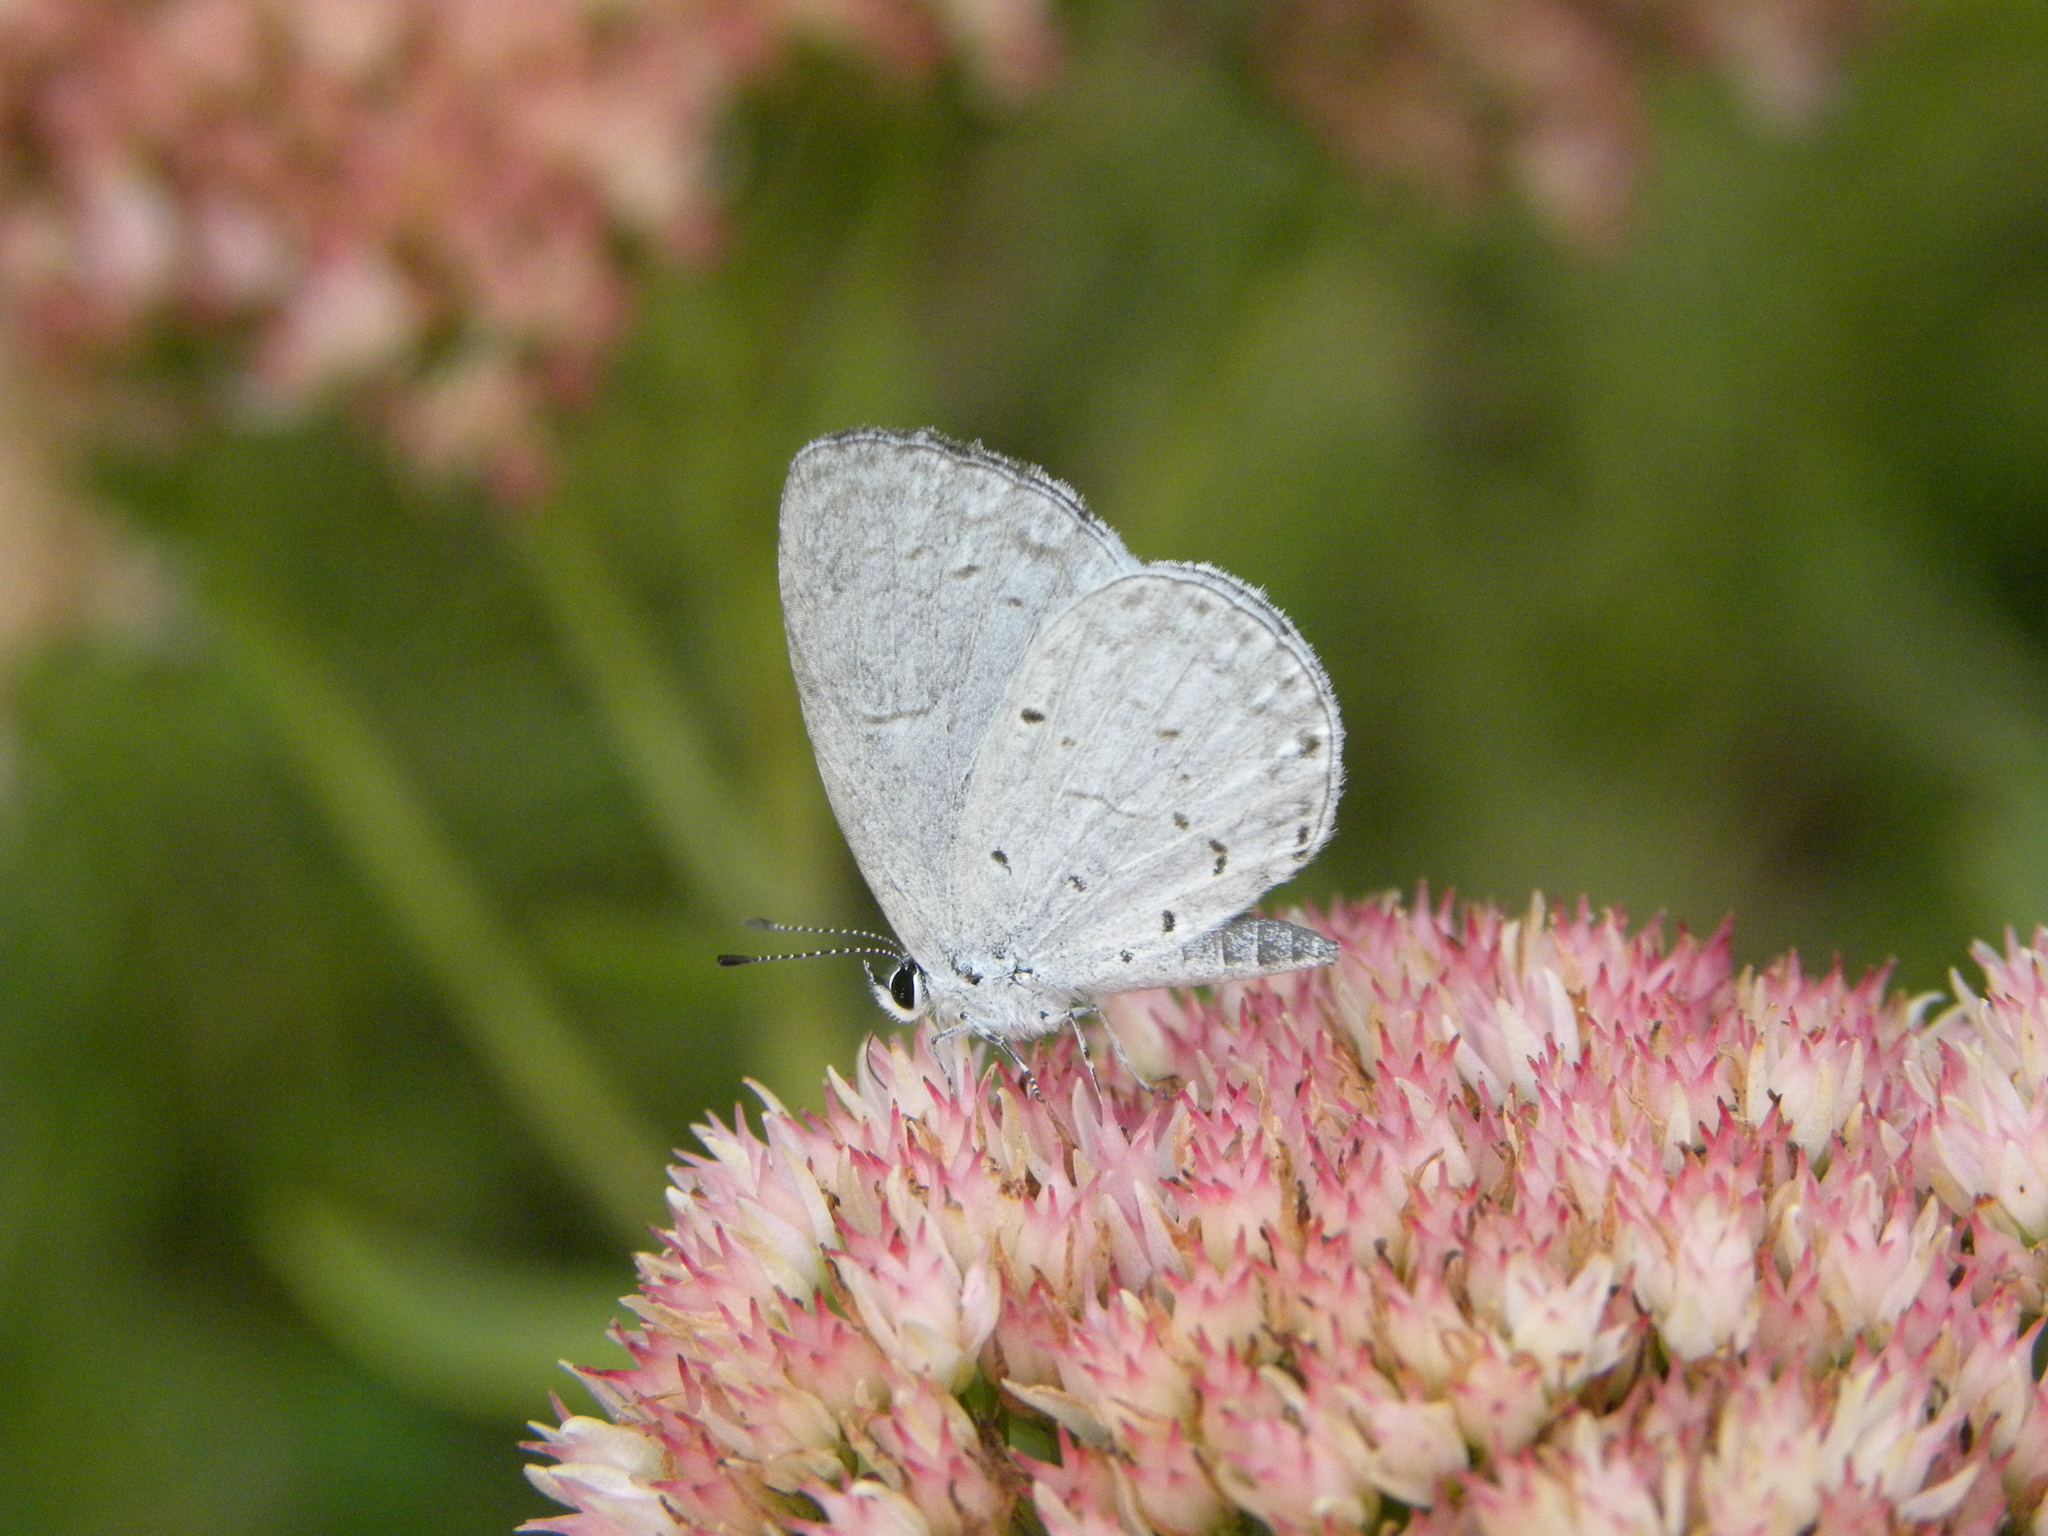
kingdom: Animalia
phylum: Arthropoda
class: Insecta
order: Lepidoptera
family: Lycaenidae
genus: Cyaniris
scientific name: Cyaniris neglecta
